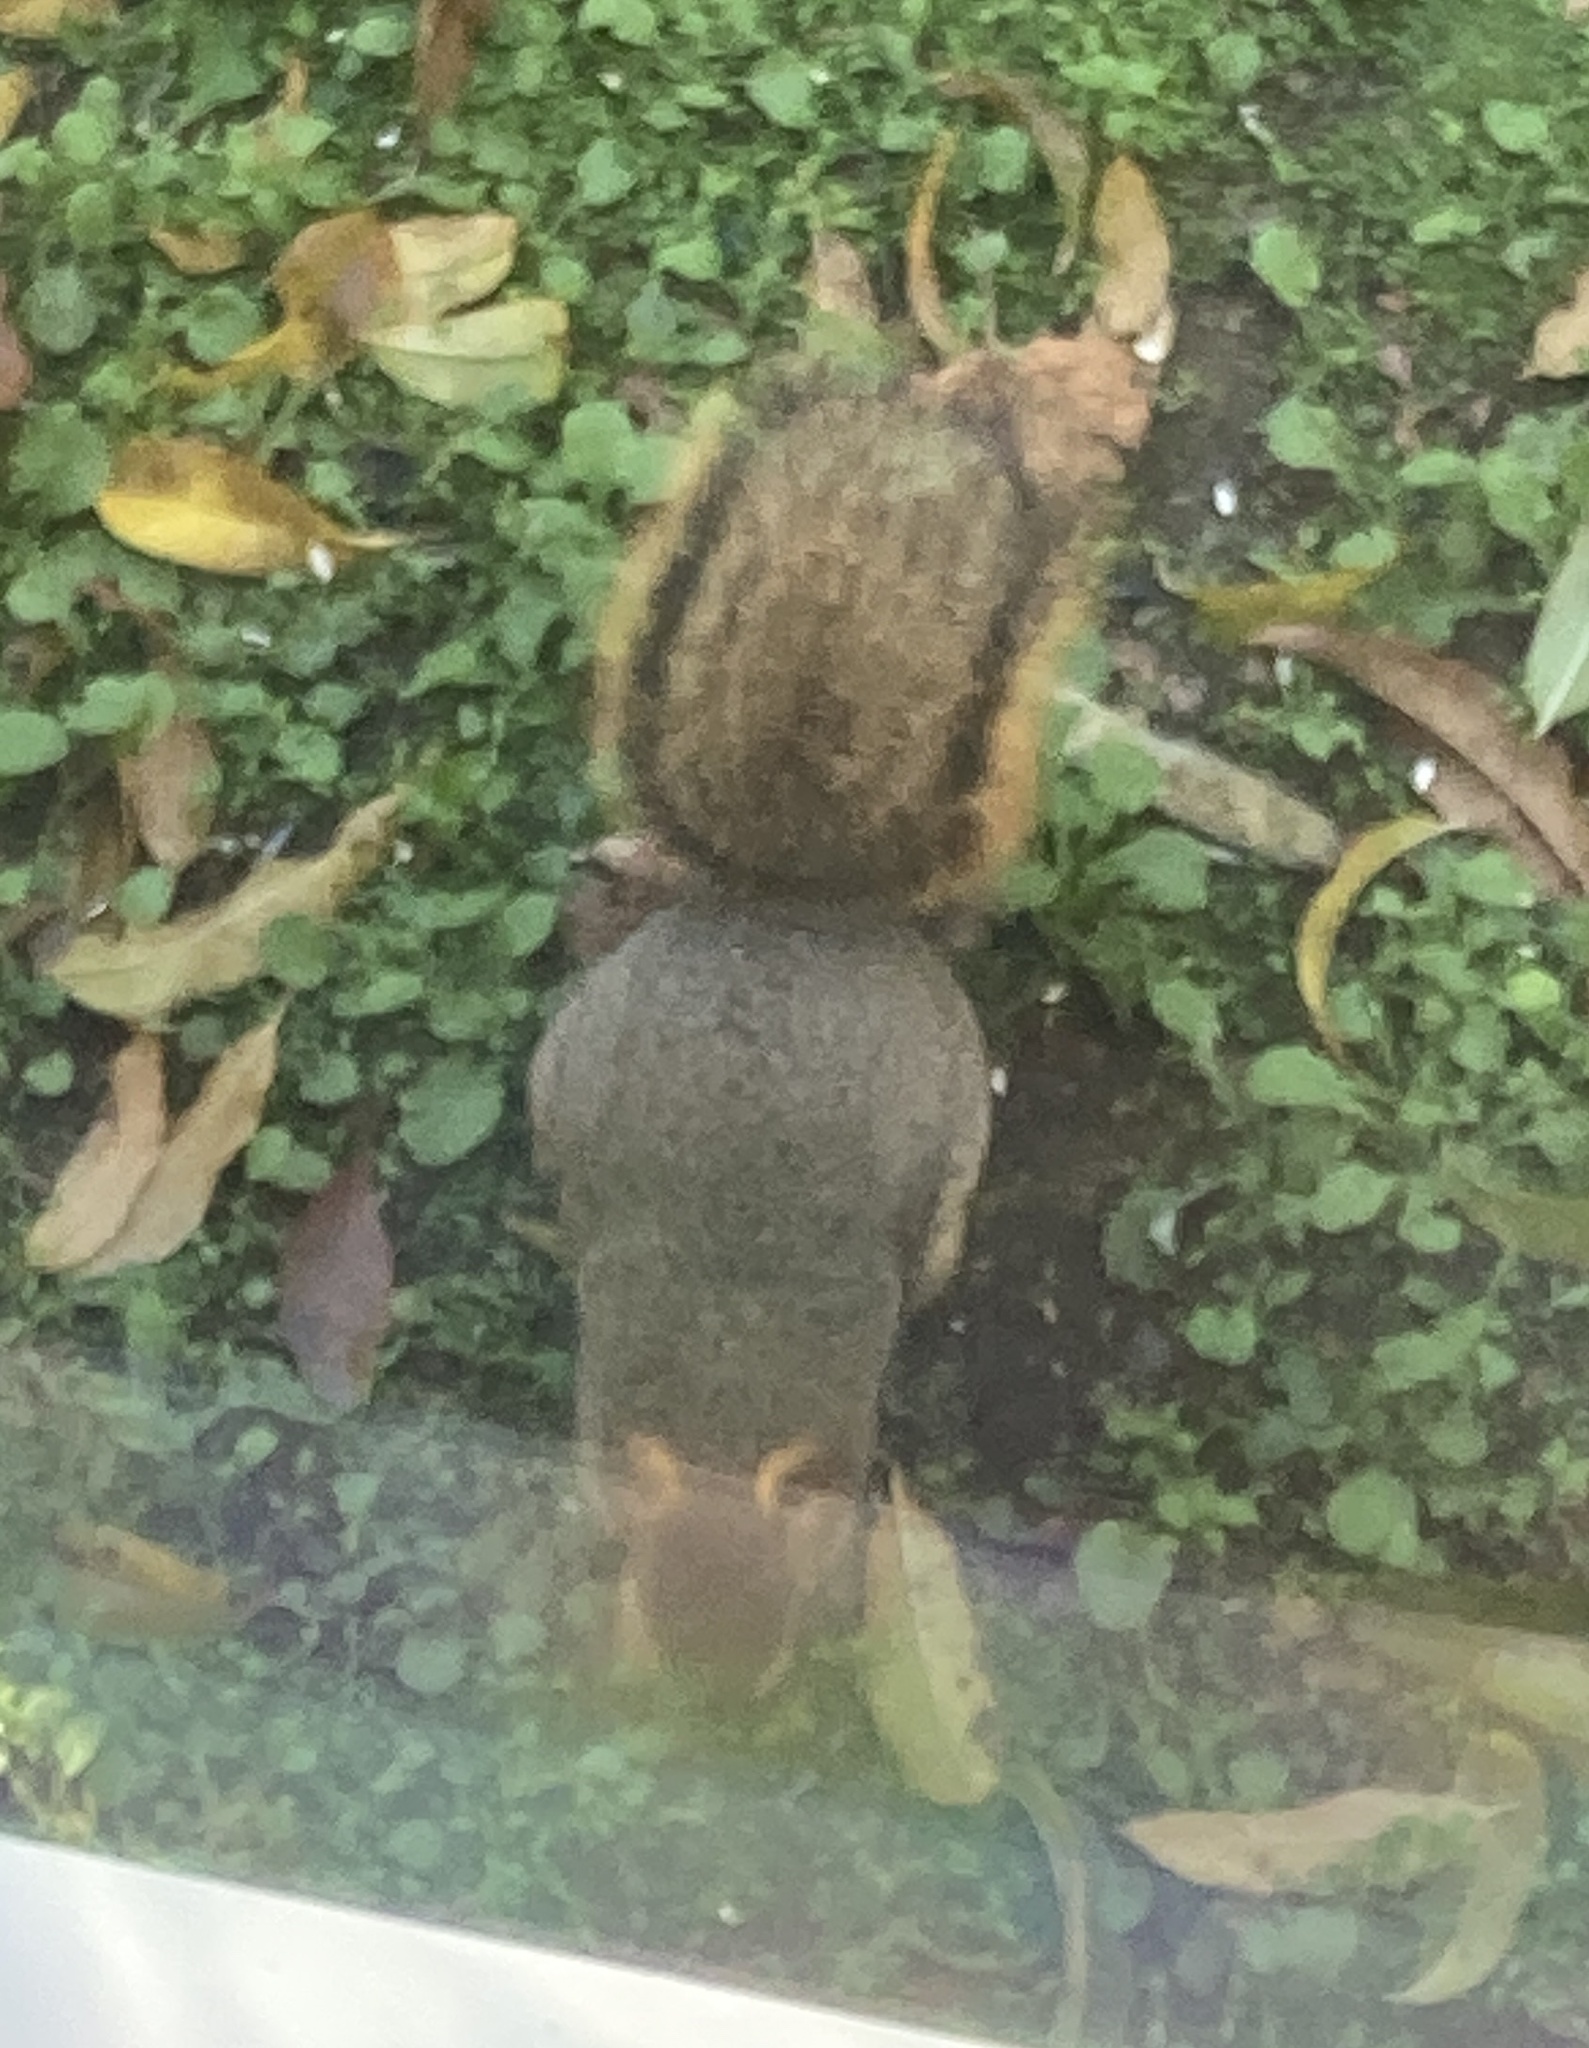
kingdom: Animalia
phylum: Chordata
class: Mammalia
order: Rodentia
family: Sciuridae
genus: Sciurus
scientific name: Sciurus niger
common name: Fox squirrel
